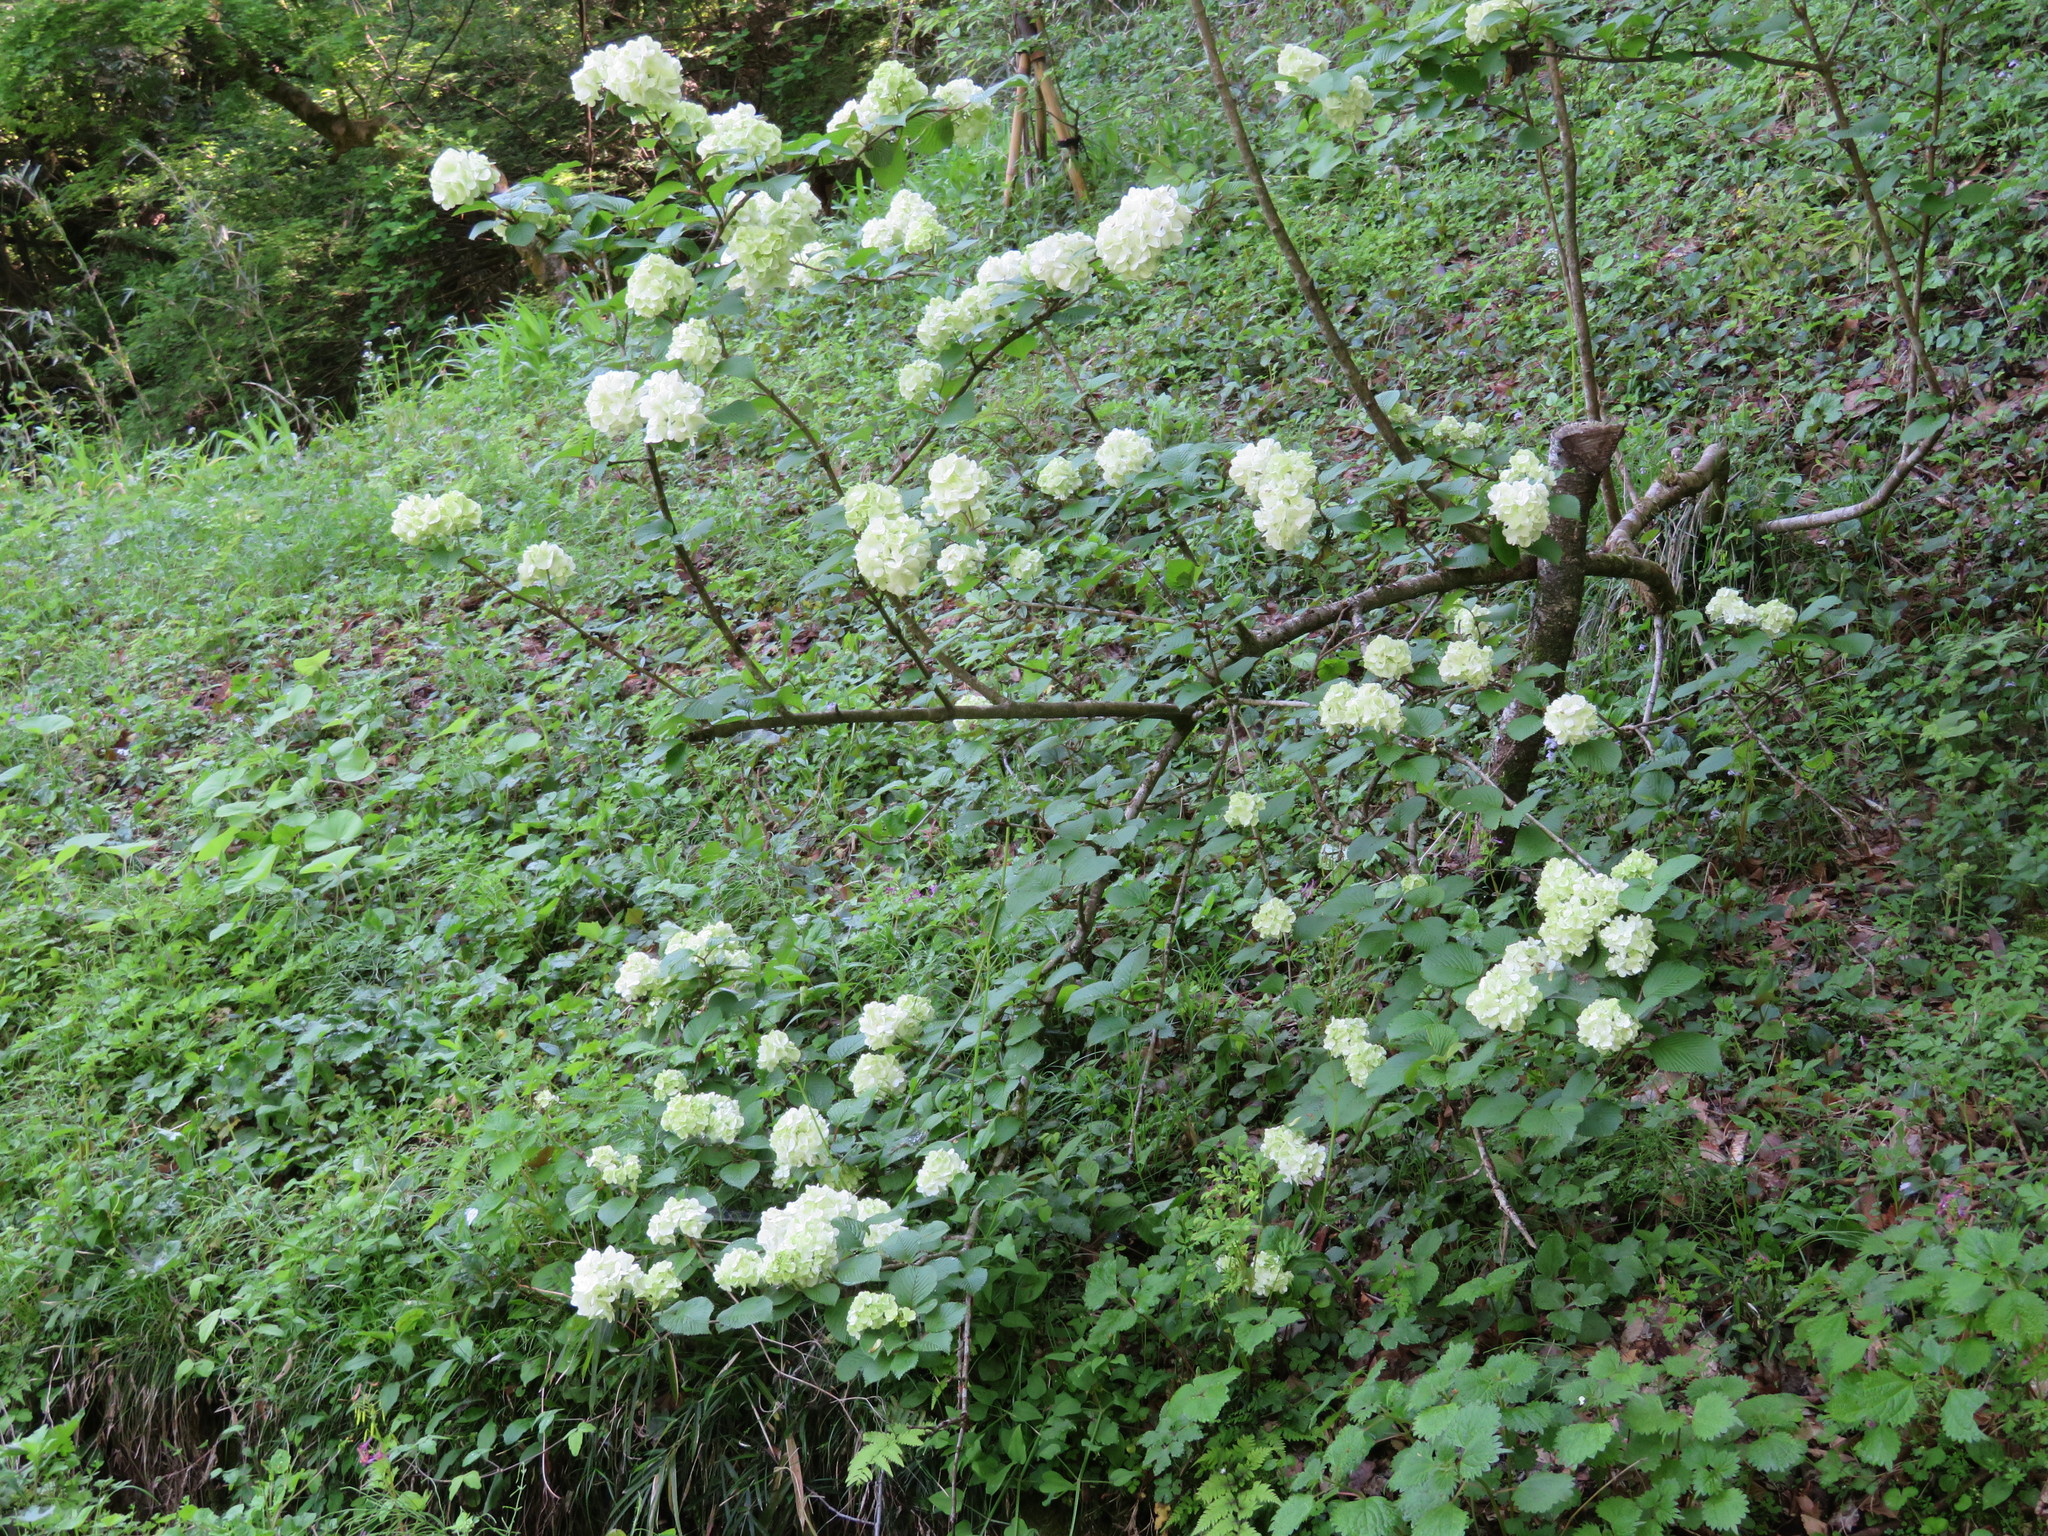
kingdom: Plantae
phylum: Tracheophyta
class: Magnoliopsida
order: Dipsacales
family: Viburnaceae
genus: Viburnum
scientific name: Viburnum plicatum
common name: Japanese snowball
